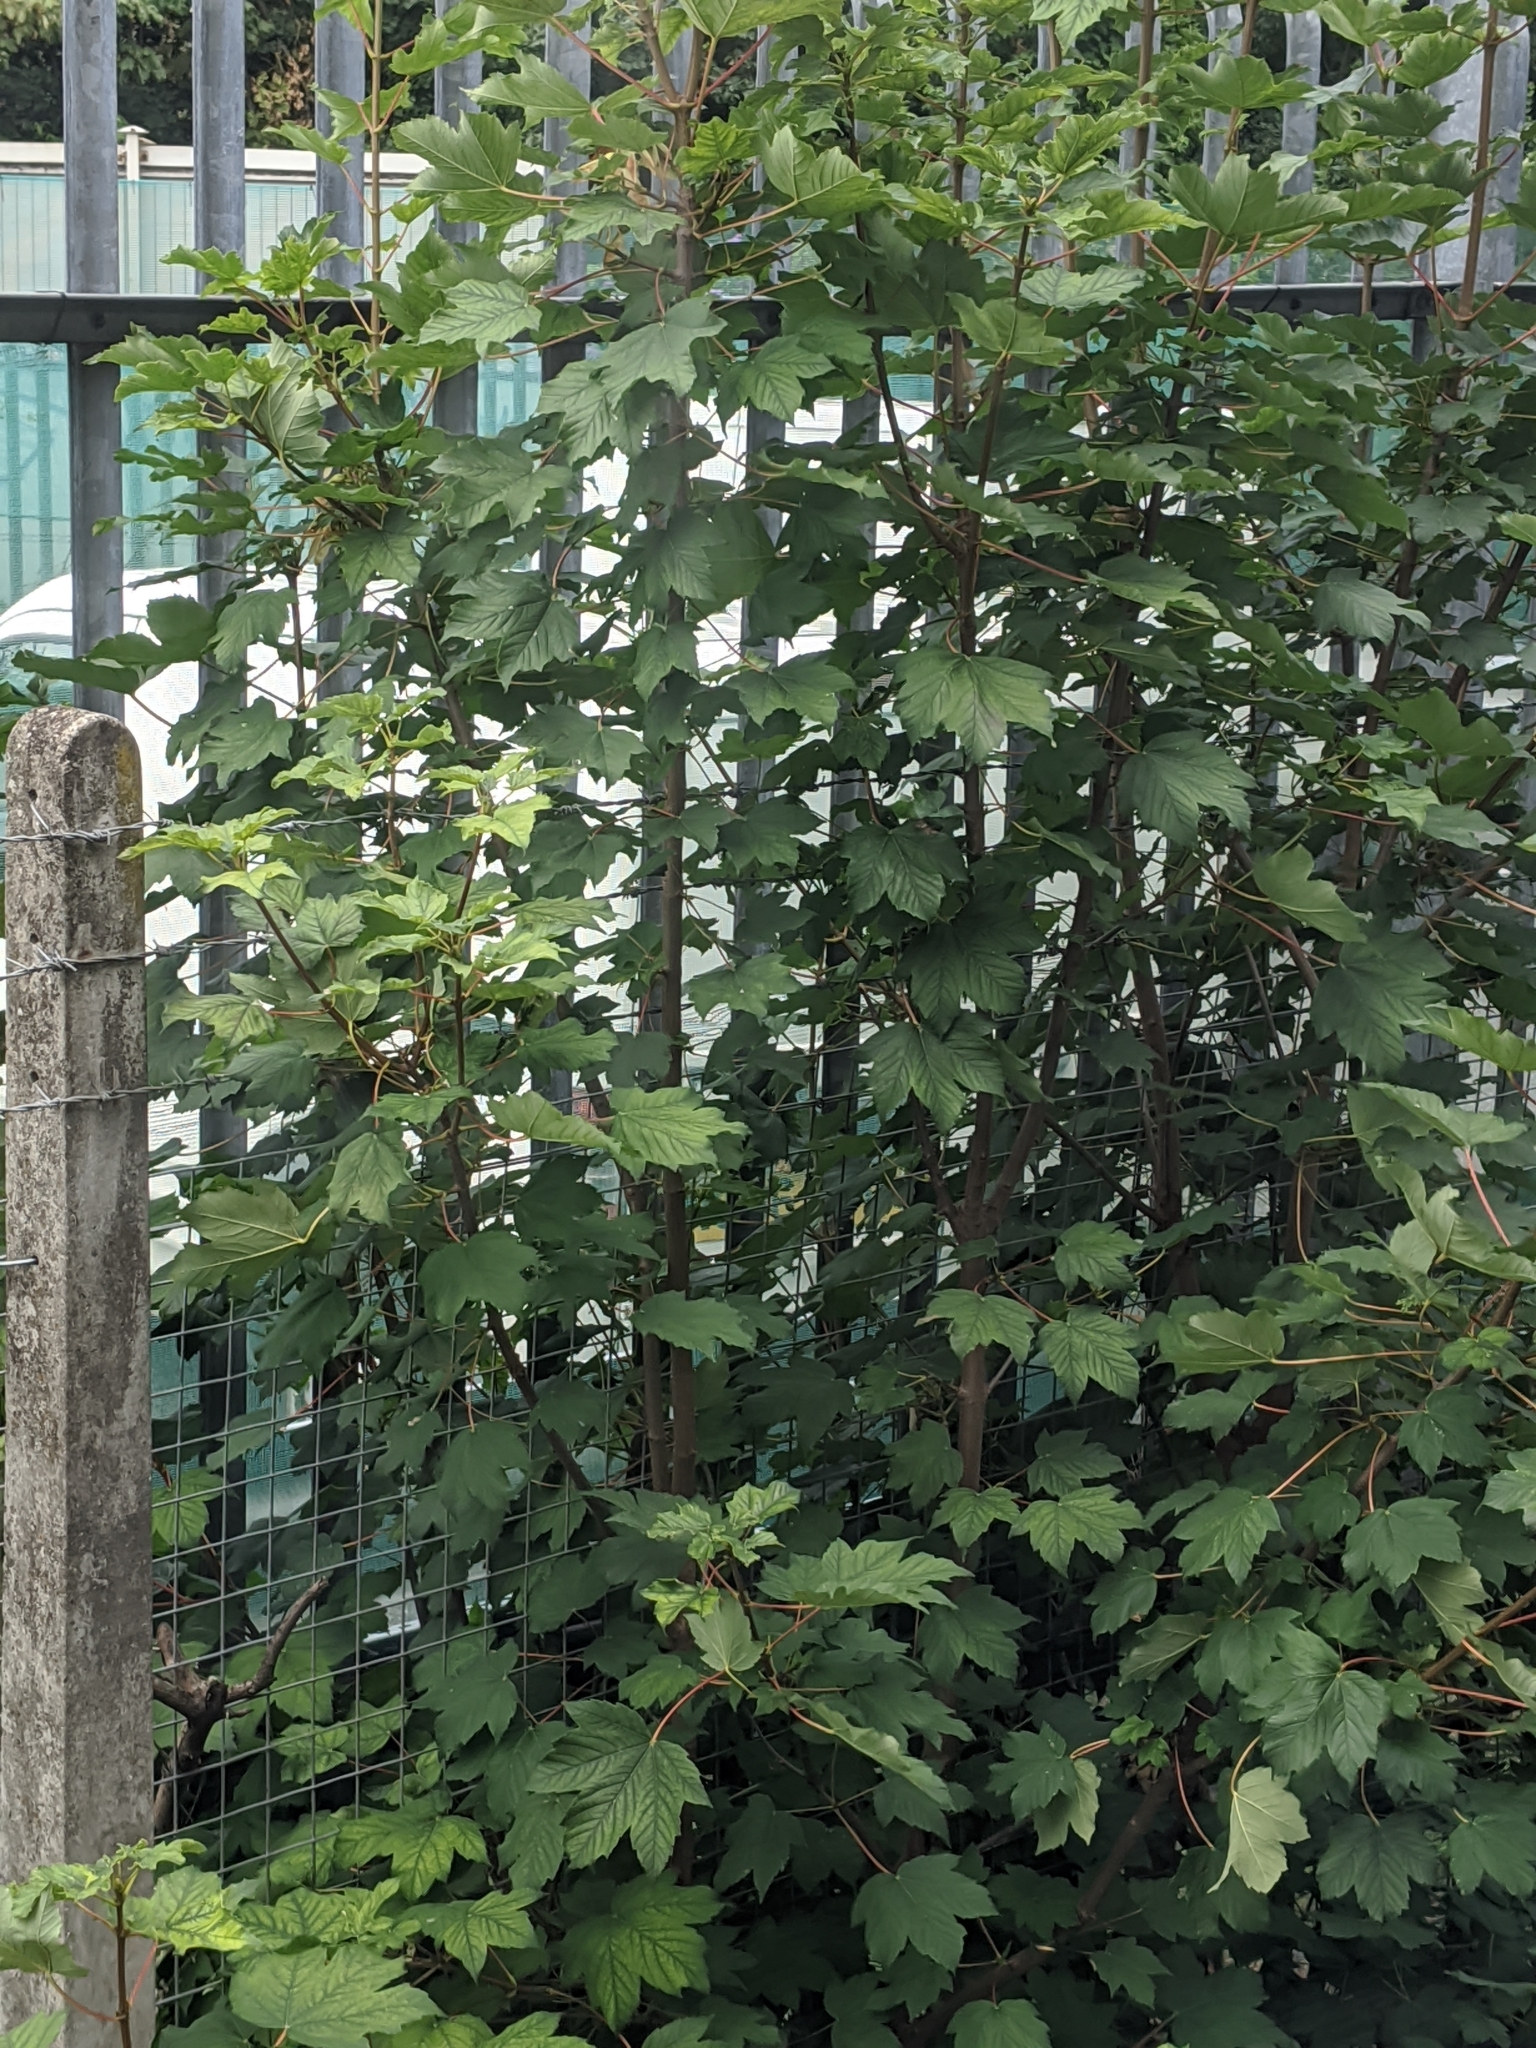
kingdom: Plantae
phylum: Tracheophyta
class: Magnoliopsida
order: Sapindales
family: Sapindaceae
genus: Acer
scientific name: Acer pseudoplatanus
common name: Sycamore
